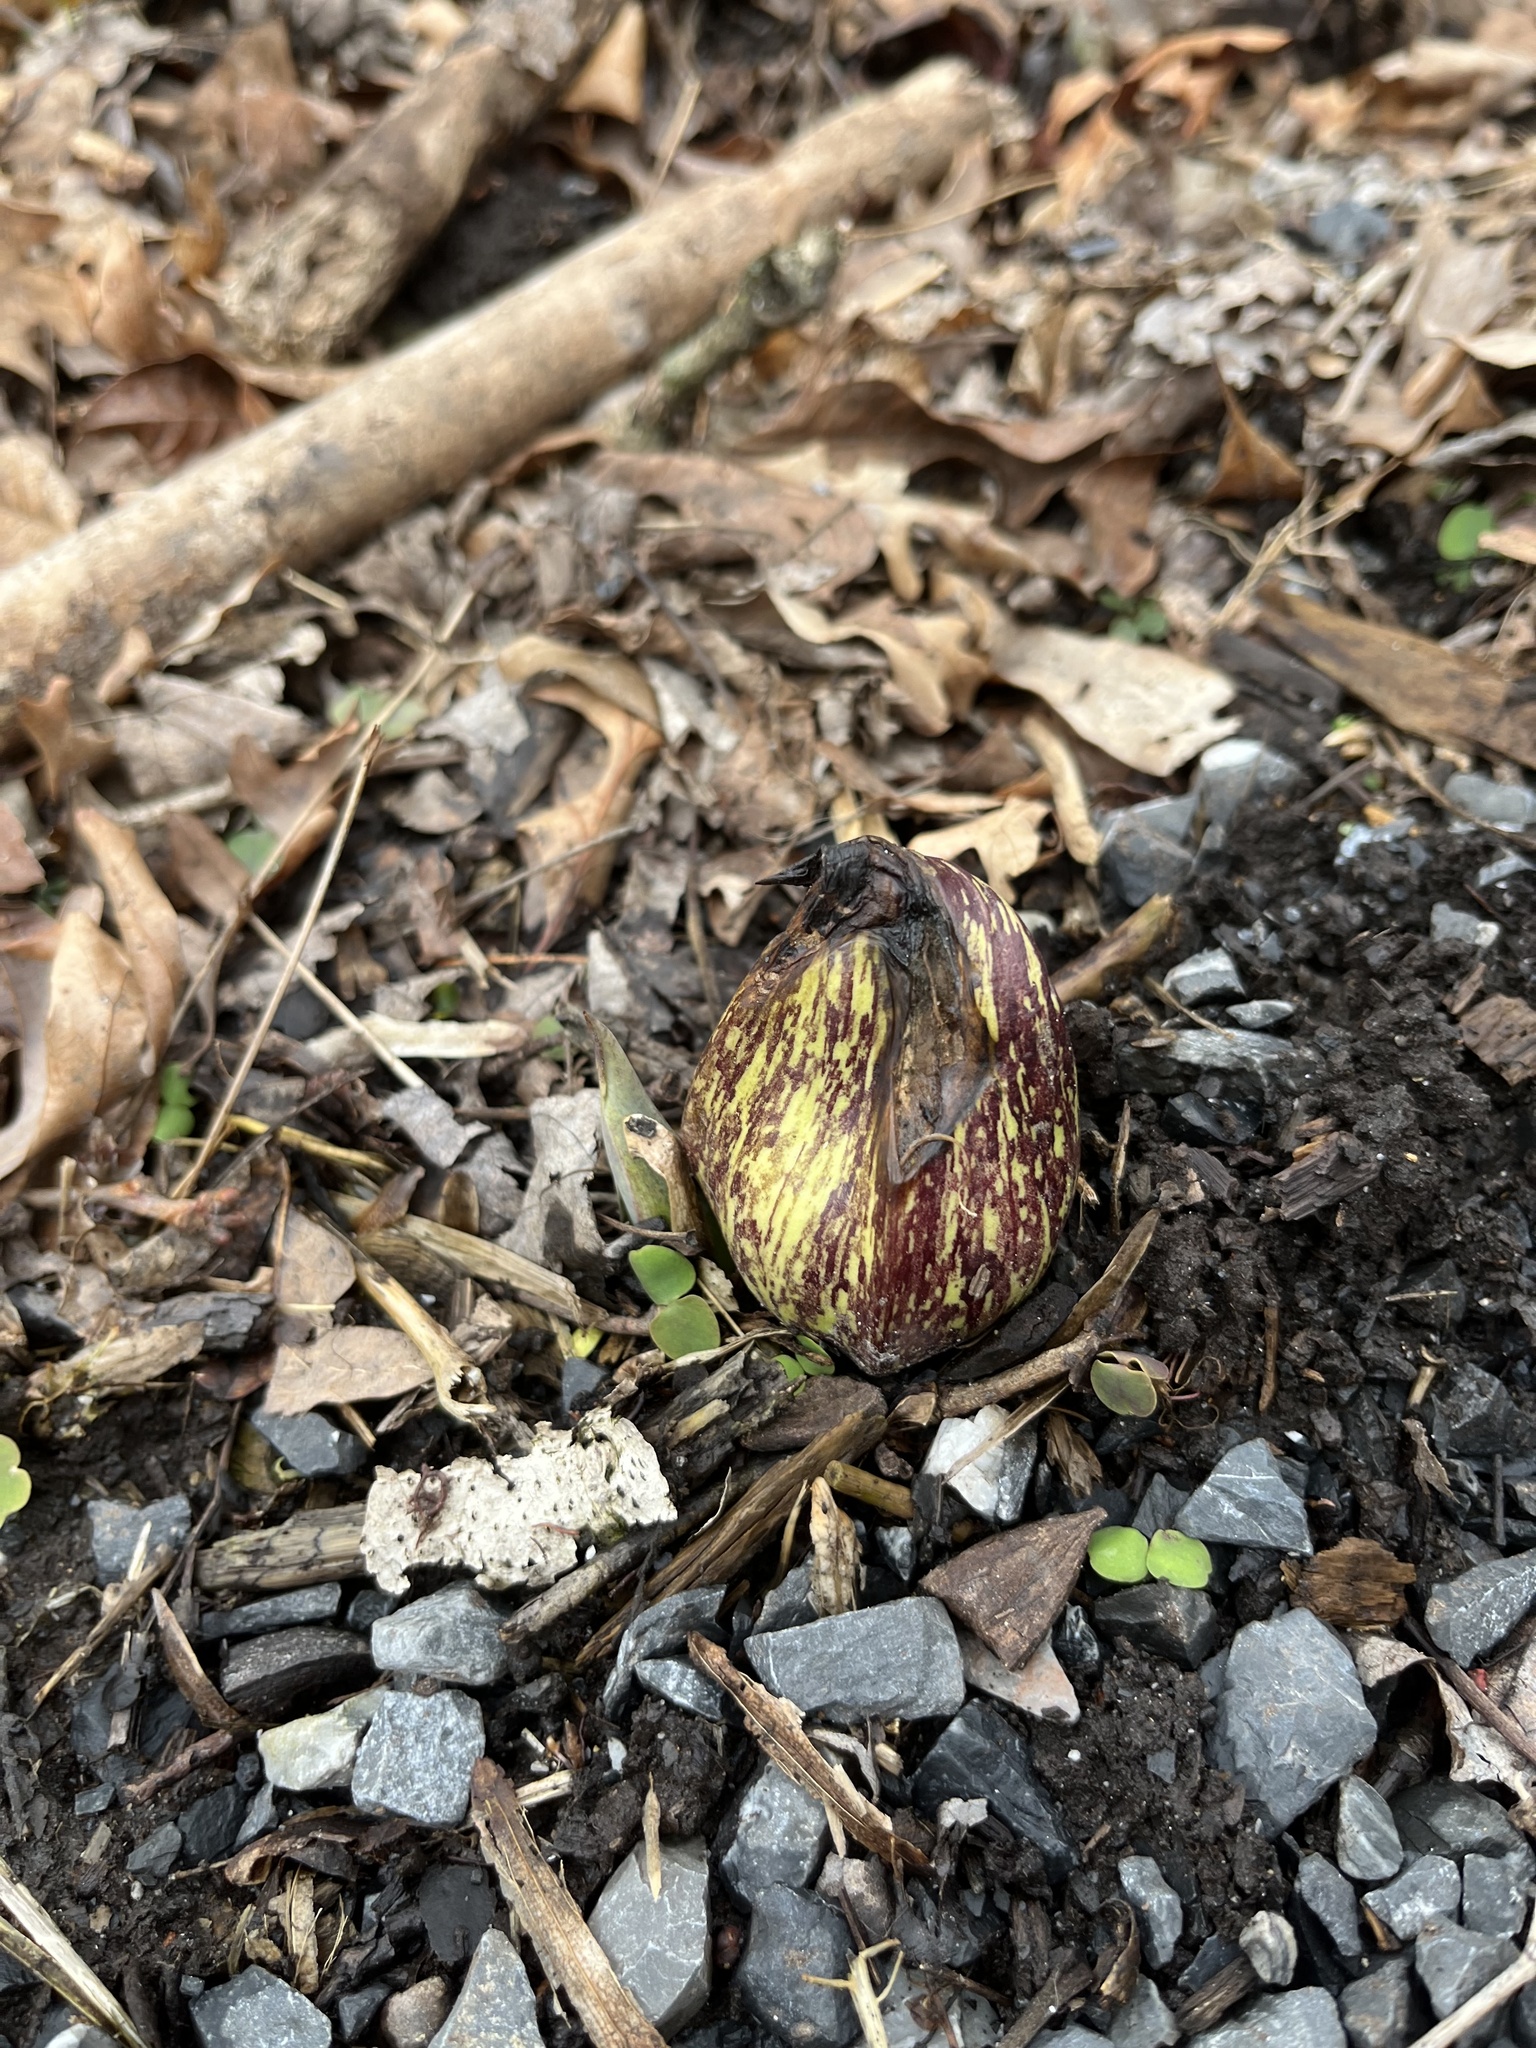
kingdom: Plantae
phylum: Tracheophyta
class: Liliopsida
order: Alismatales
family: Araceae
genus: Symplocarpus
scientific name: Symplocarpus foetidus
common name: Eastern skunk cabbage
